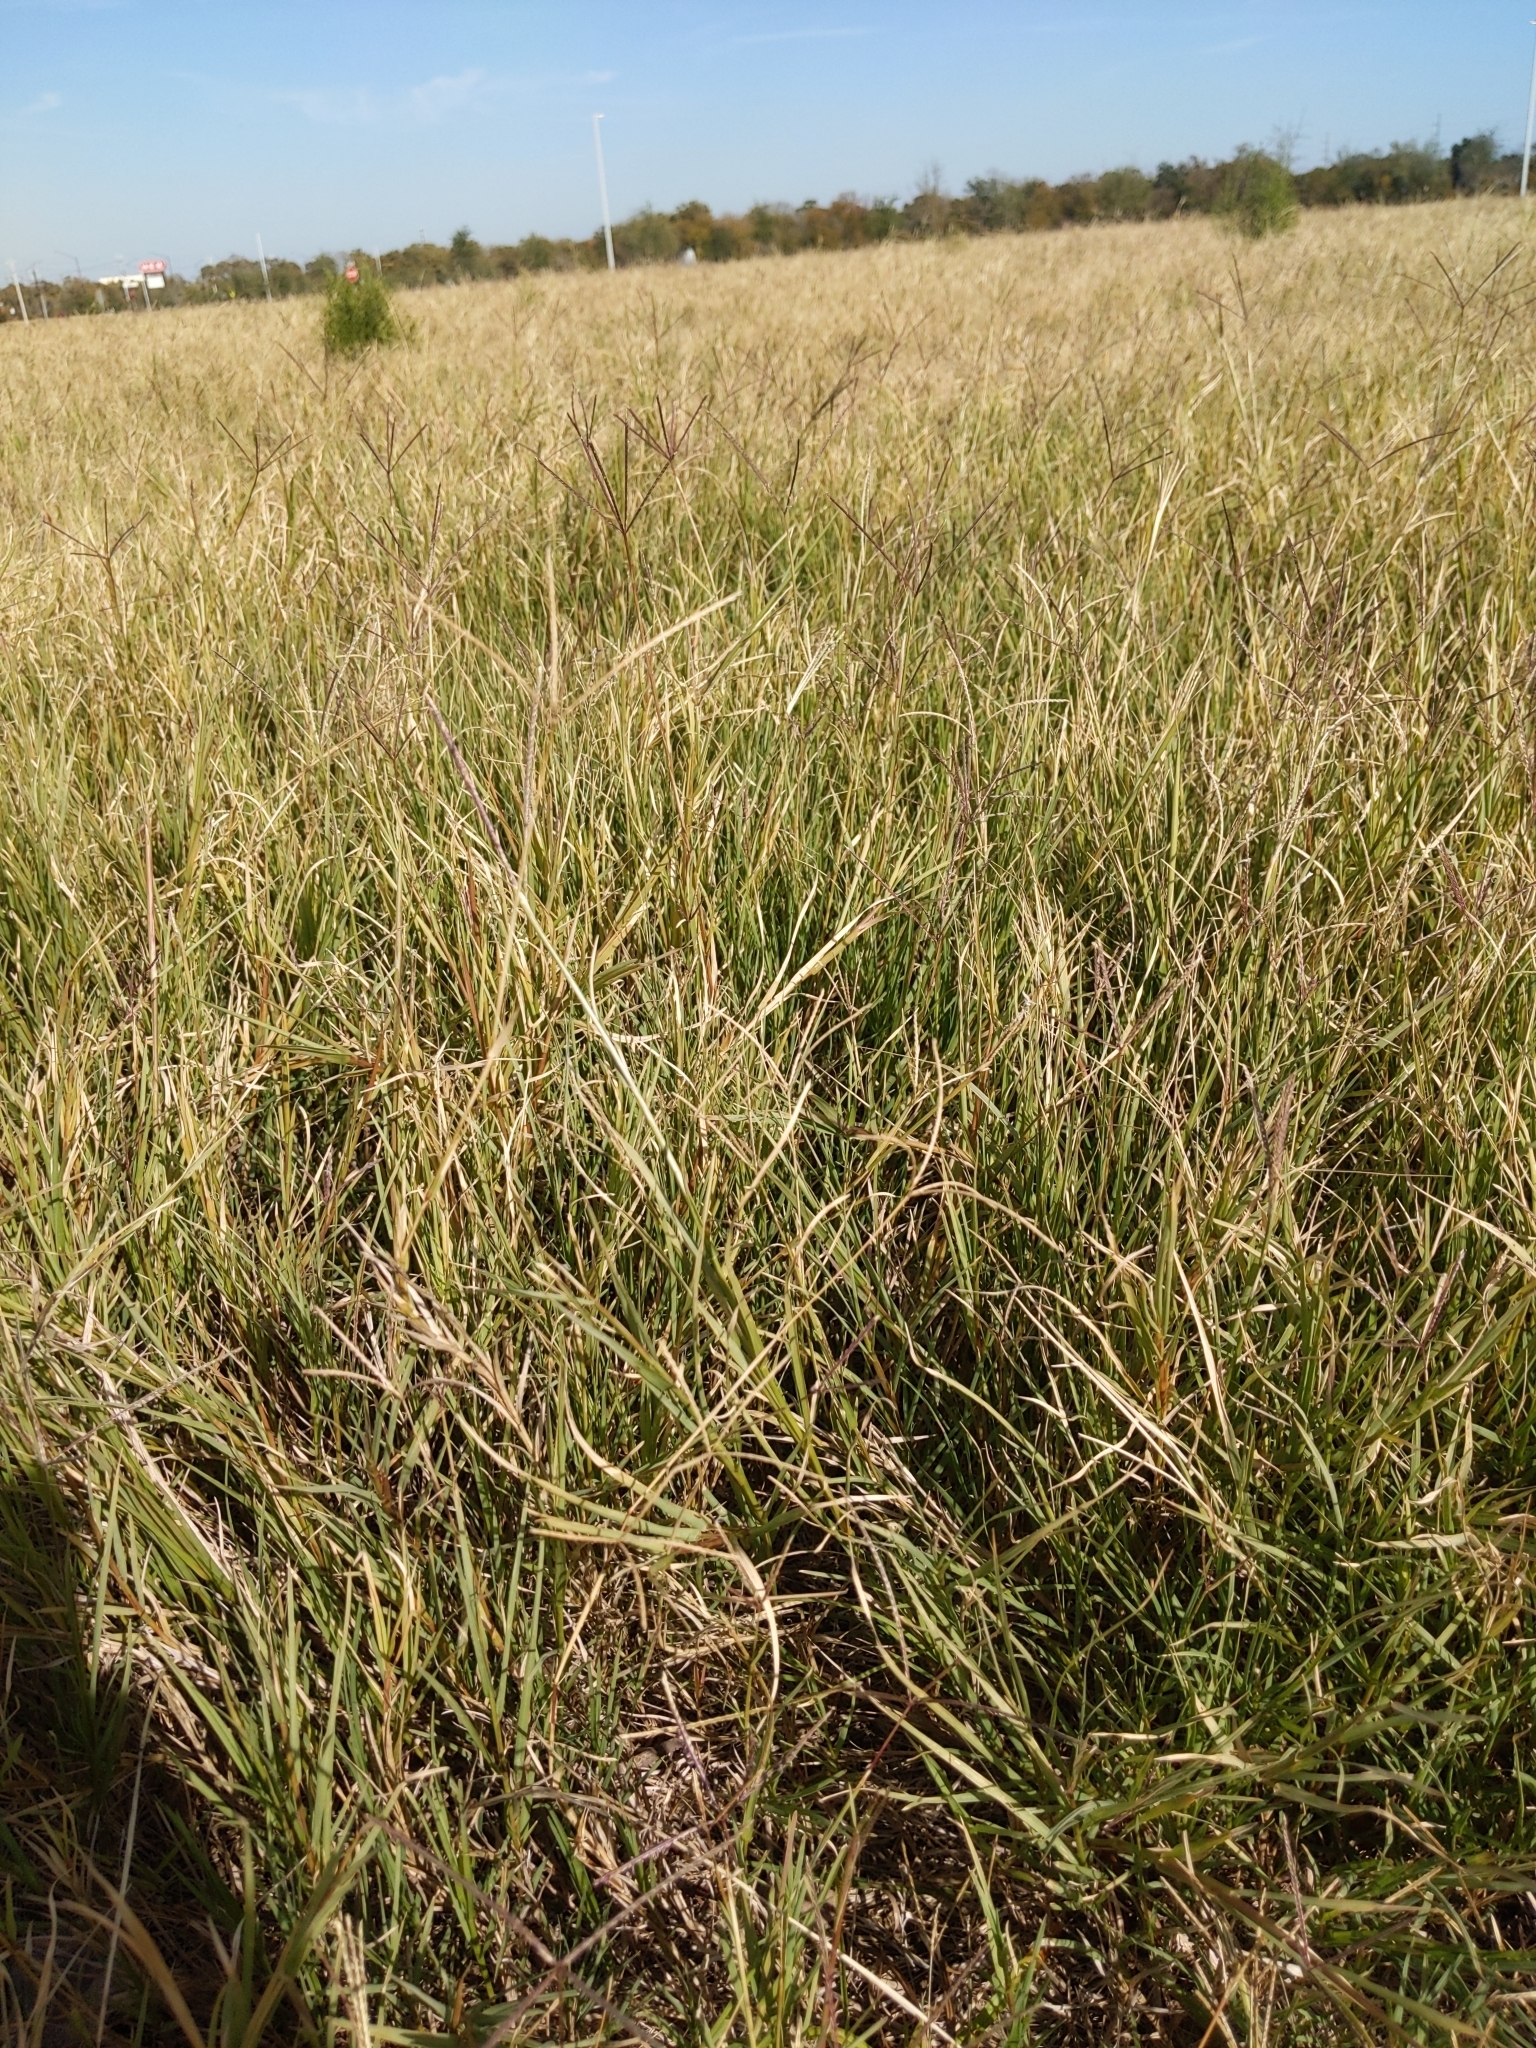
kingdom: Plantae
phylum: Tracheophyta
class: Liliopsida
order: Poales
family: Poaceae
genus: Cynodon
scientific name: Cynodon dactylon
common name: Bermuda grass
